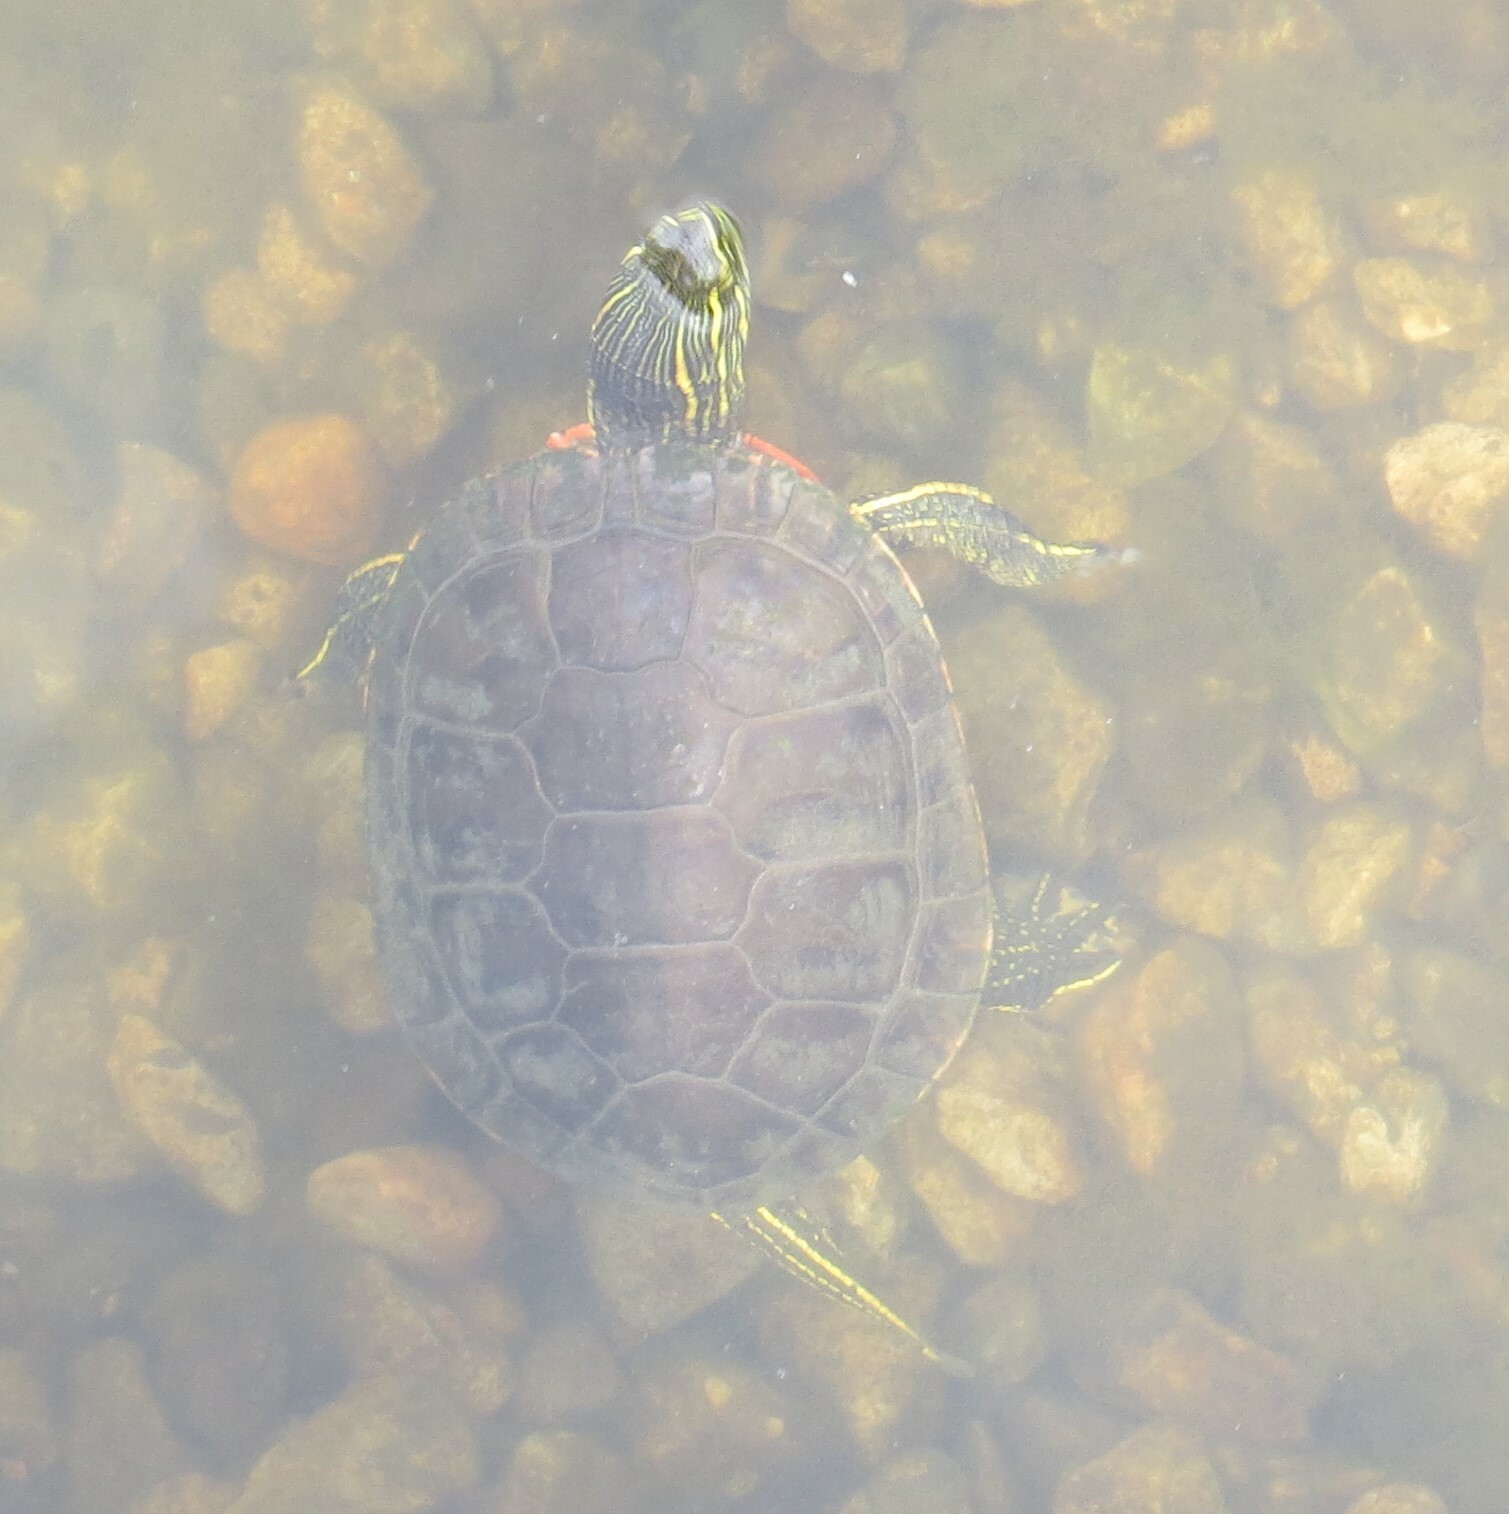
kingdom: Animalia
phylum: Chordata
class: Testudines
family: Emydidae
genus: Chrysemys
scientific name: Chrysemys picta
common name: Painted turtle
